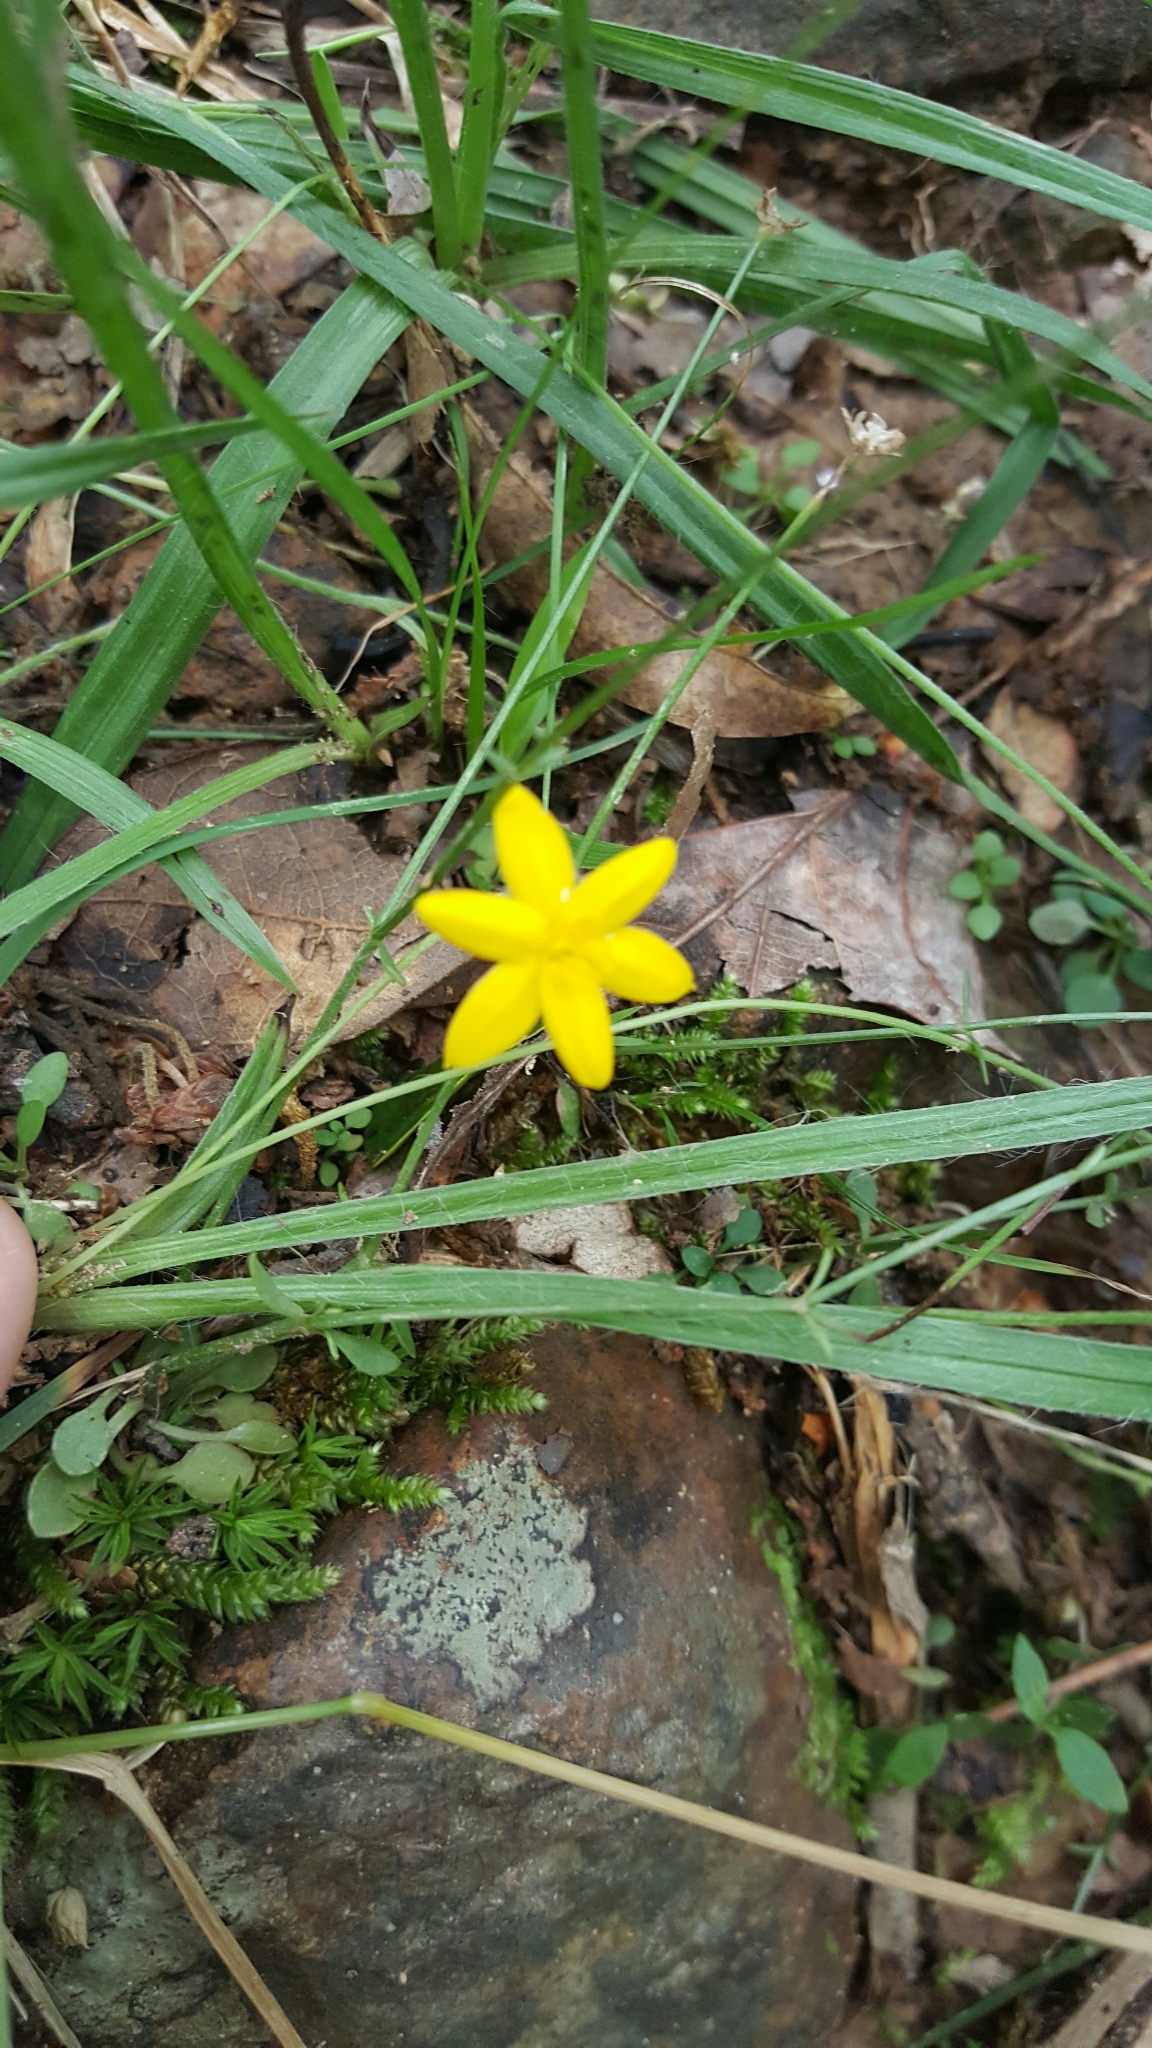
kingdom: Plantae
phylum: Tracheophyta
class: Liliopsida
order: Asparagales
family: Hypoxidaceae
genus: Hypoxis
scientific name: Hypoxis hirsuta
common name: Common goldstar
